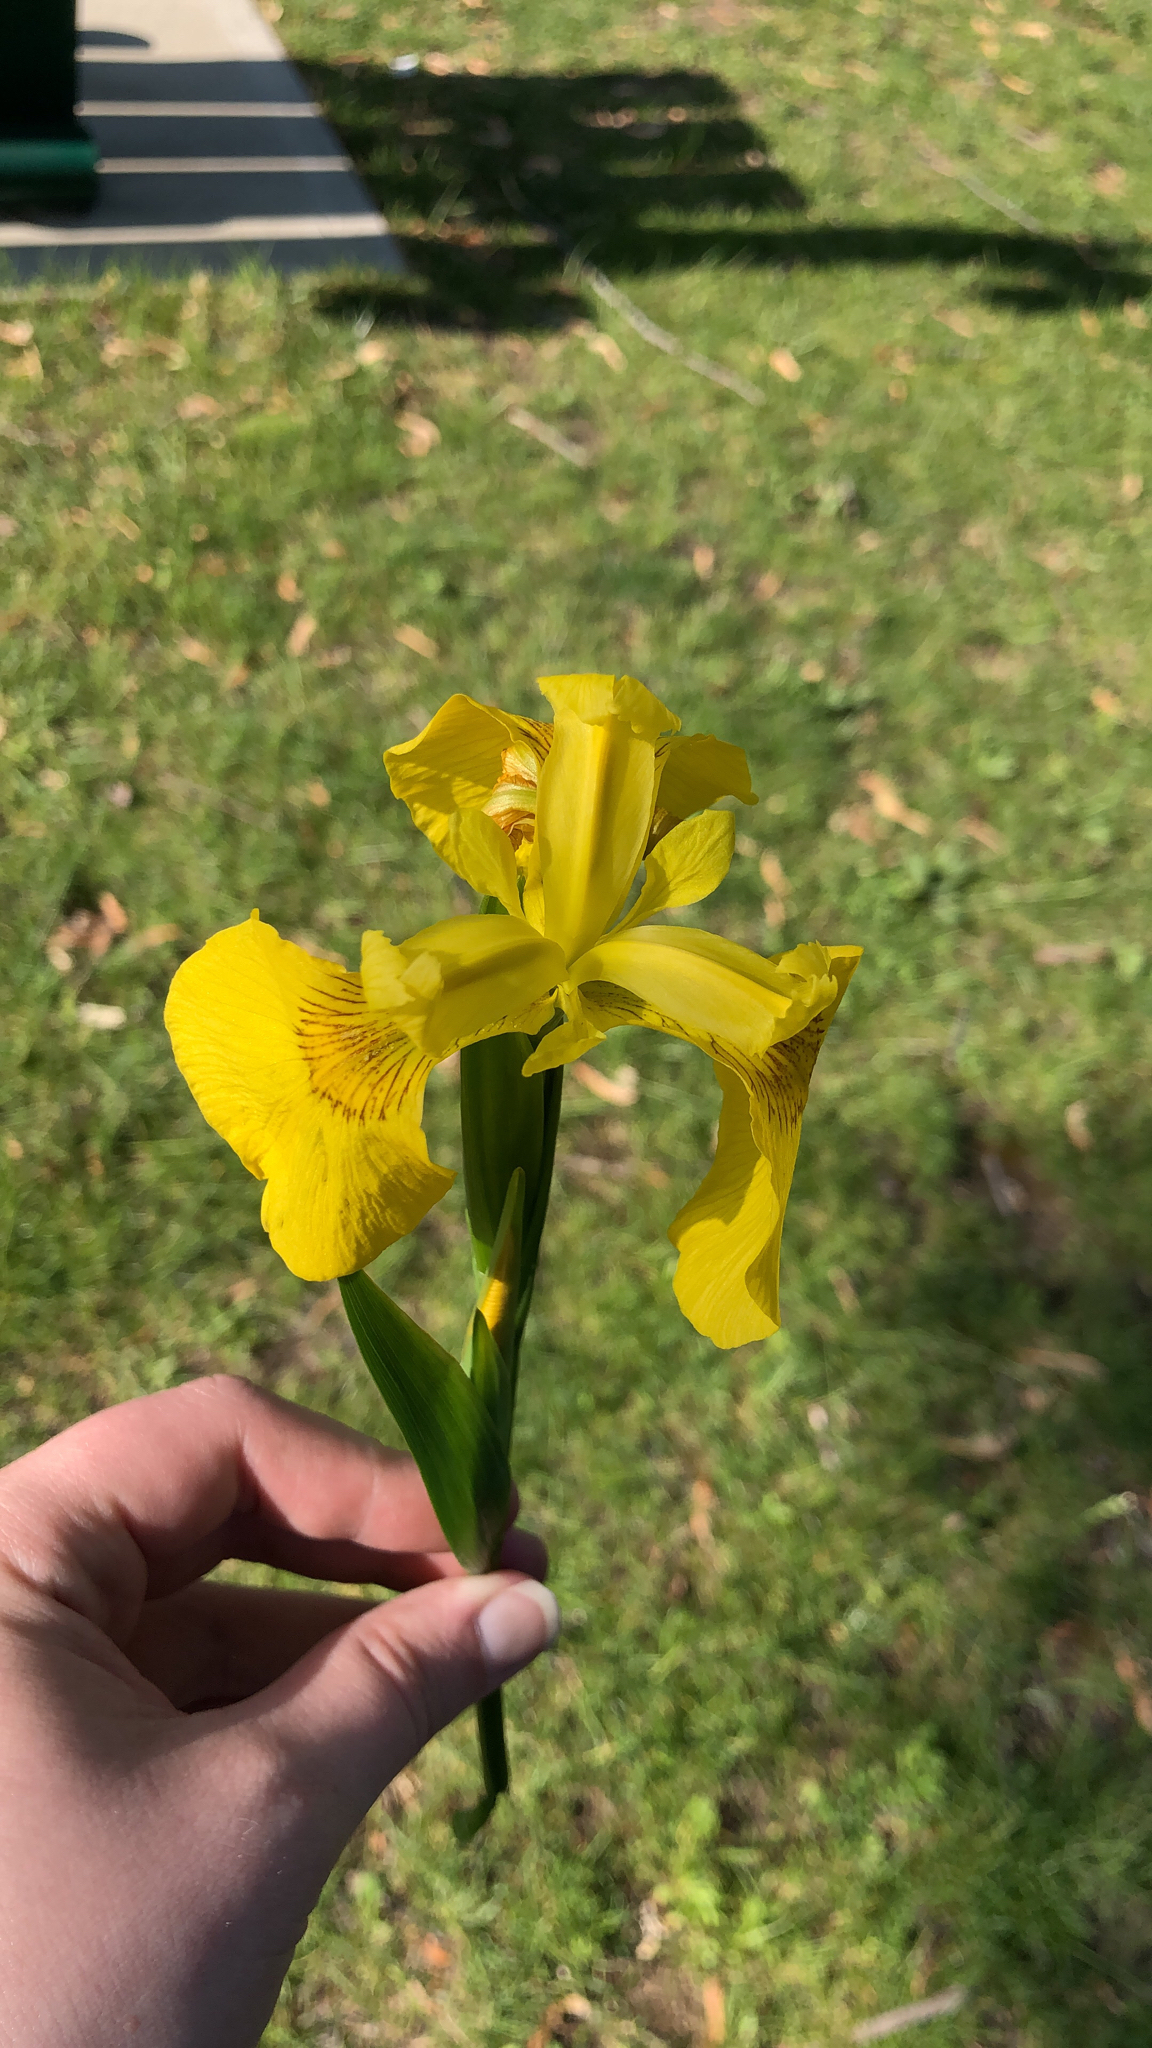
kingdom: Plantae
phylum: Tracheophyta
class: Liliopsida
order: Asparagales
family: Iridaceae
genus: Iris
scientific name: Iris pseudacorus
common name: Yellow flag
